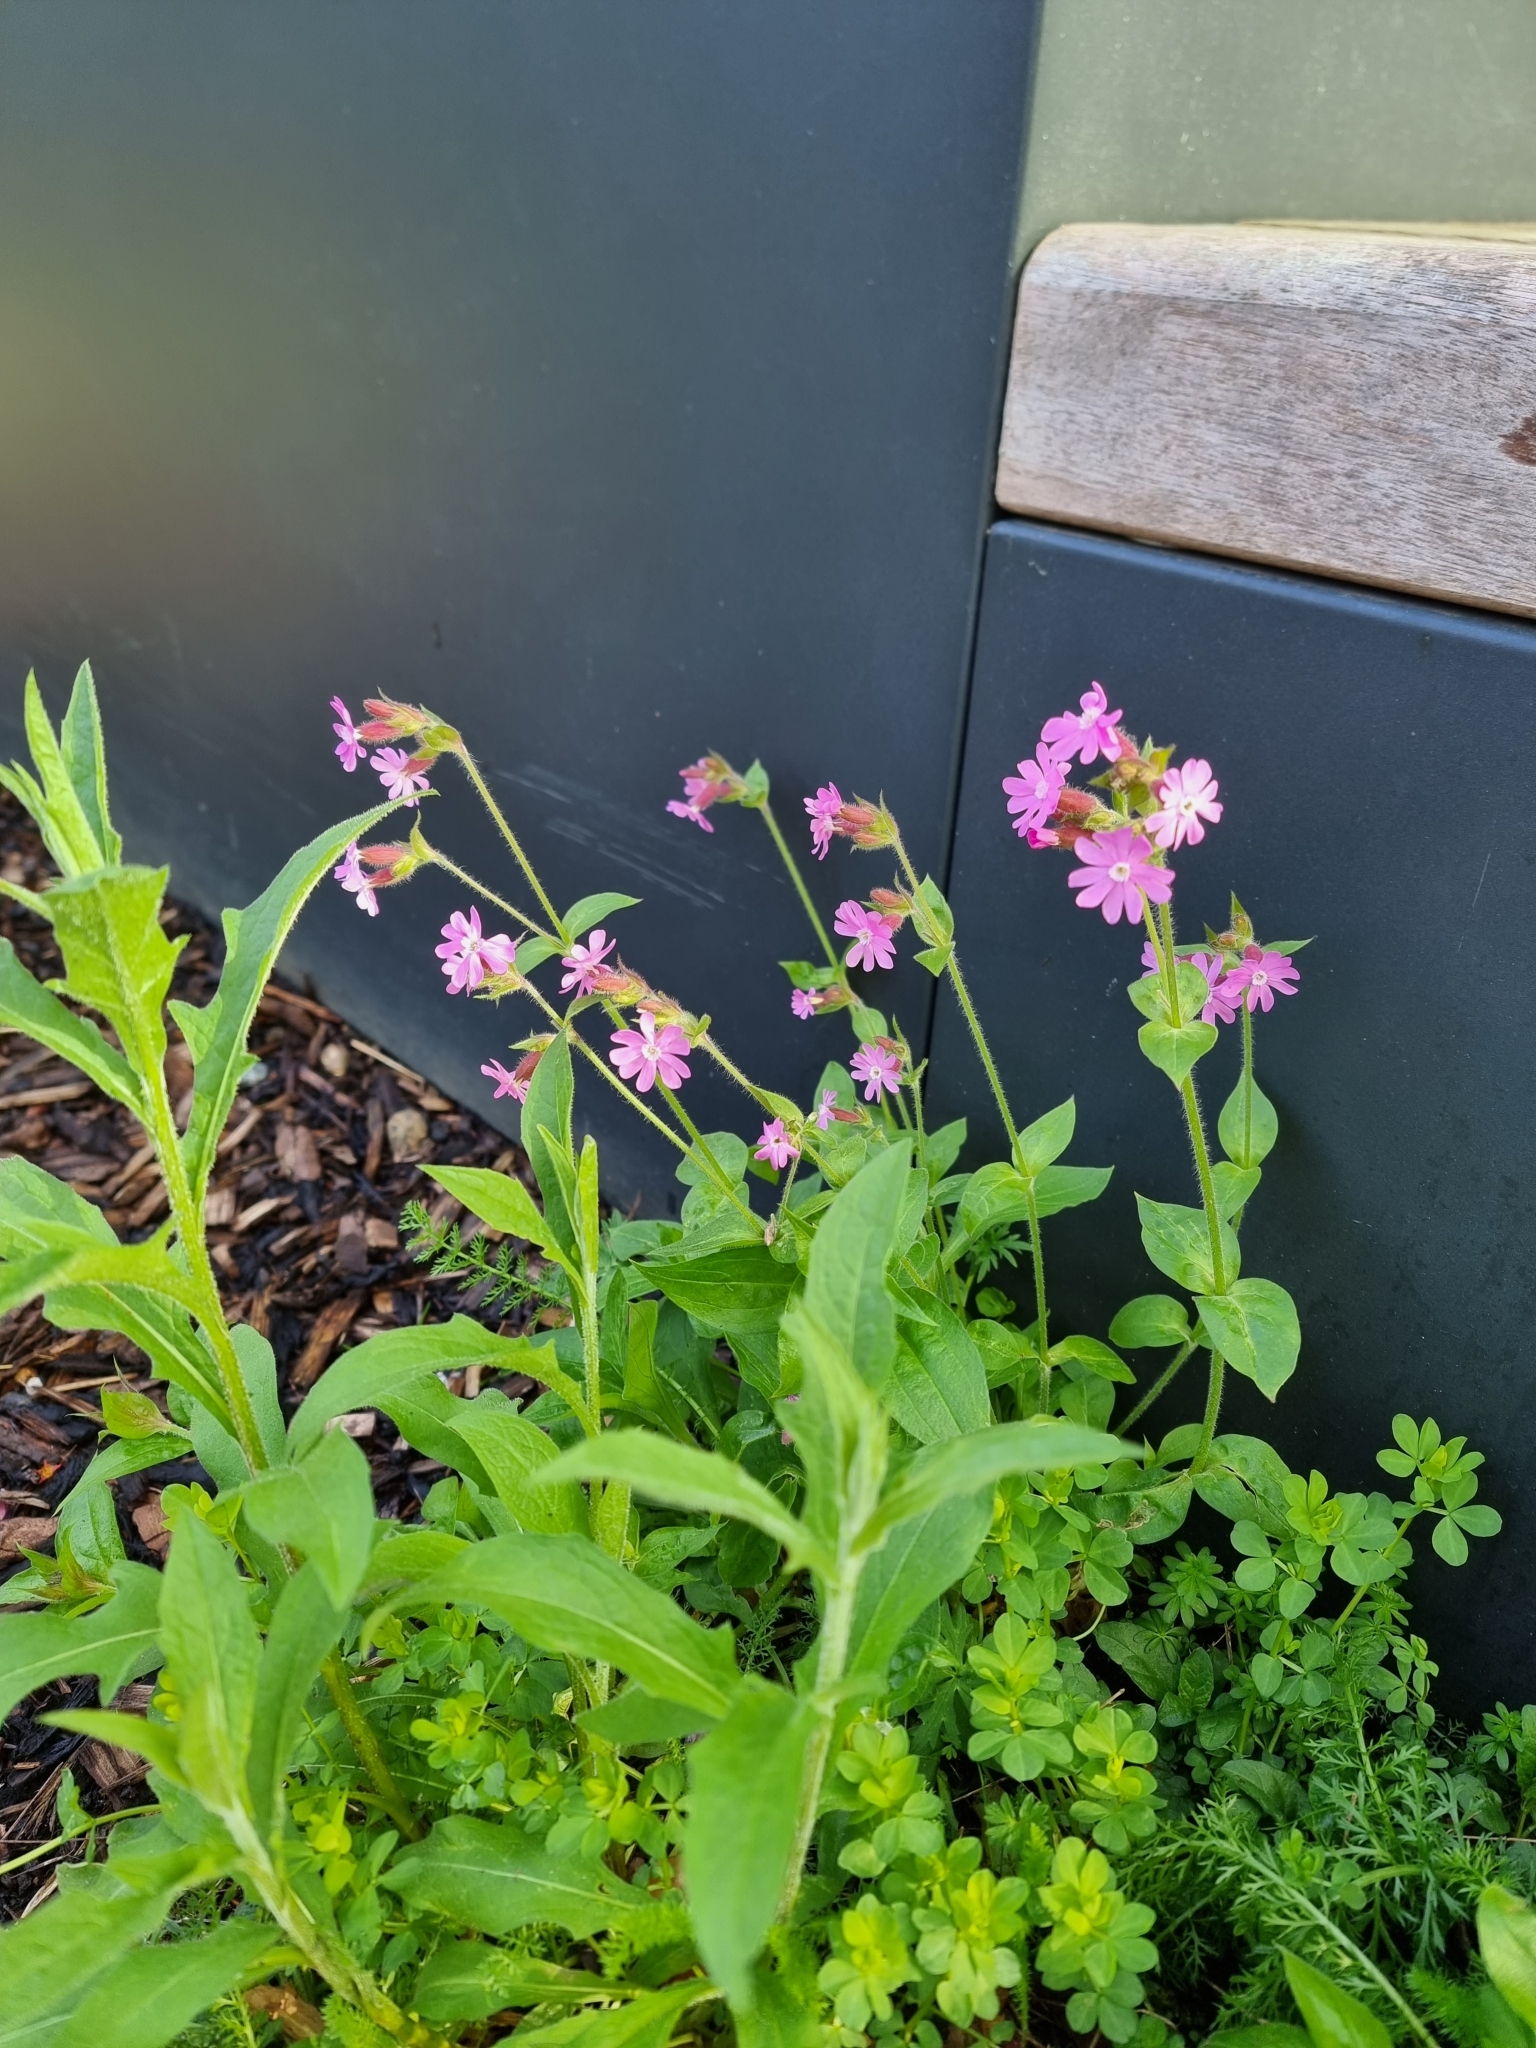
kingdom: Plantae
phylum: Tracheophyta
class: Magnoliopsida
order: Caryophyllales
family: Caryophyllaceae
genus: Silene
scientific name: Silene dioica
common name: Red campion
